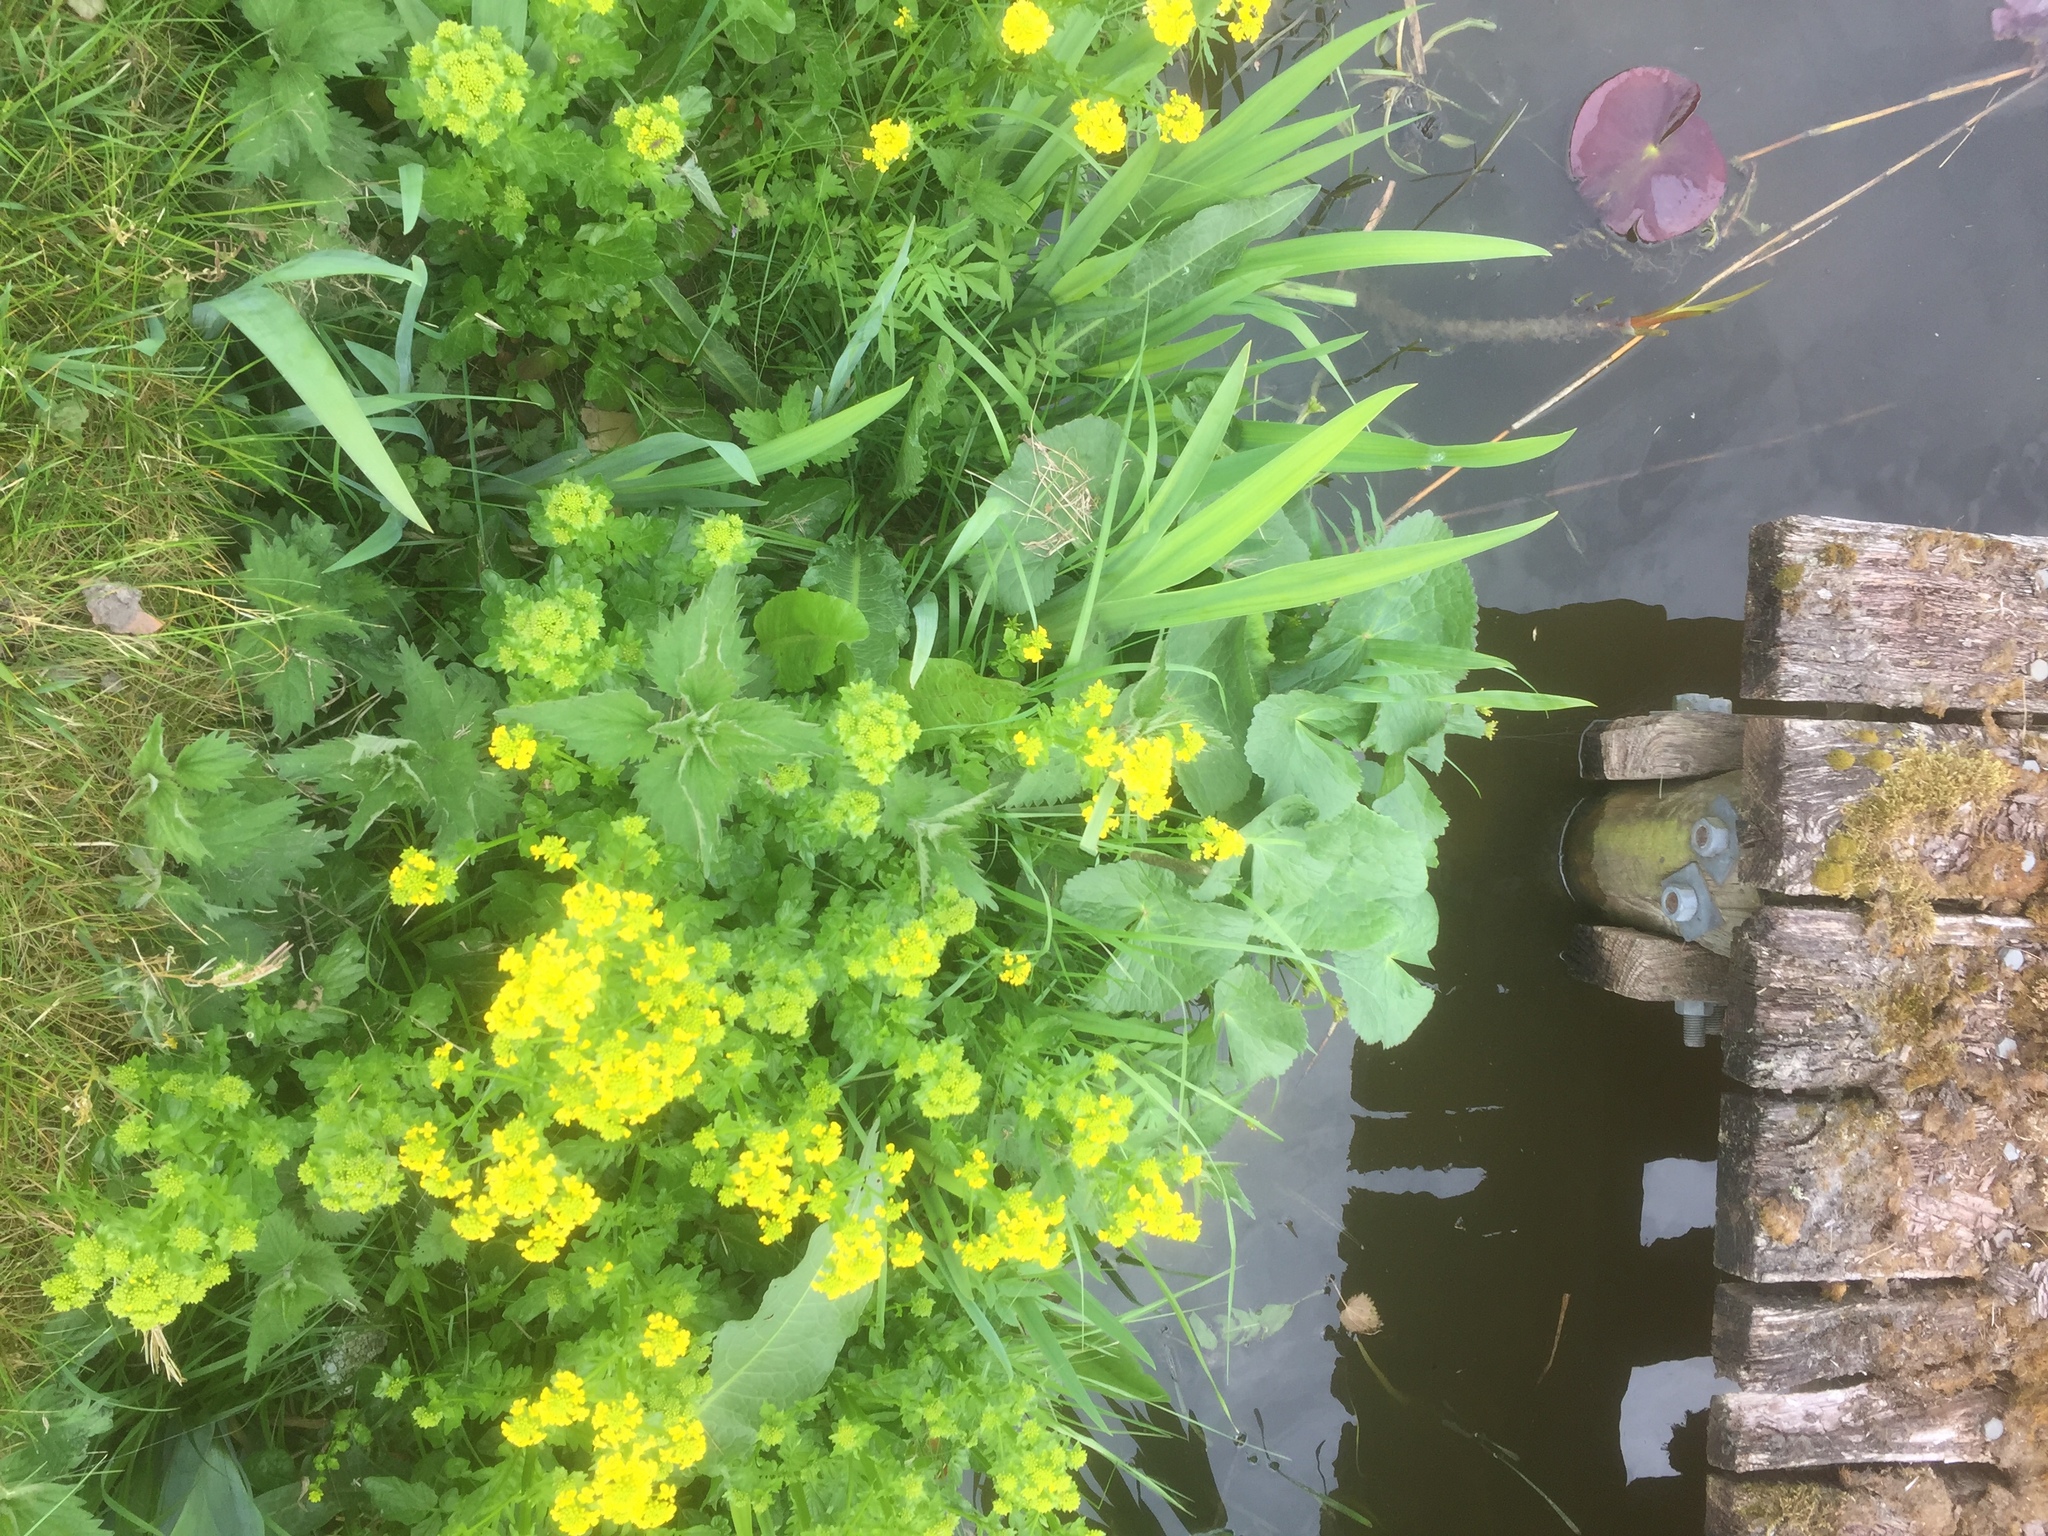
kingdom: Plantae
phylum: Tracheophyta
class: Magnoliopsida
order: Ranunculales
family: Ranunculaceae
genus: Caltha
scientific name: Caltha palustris
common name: Marsh marigold
